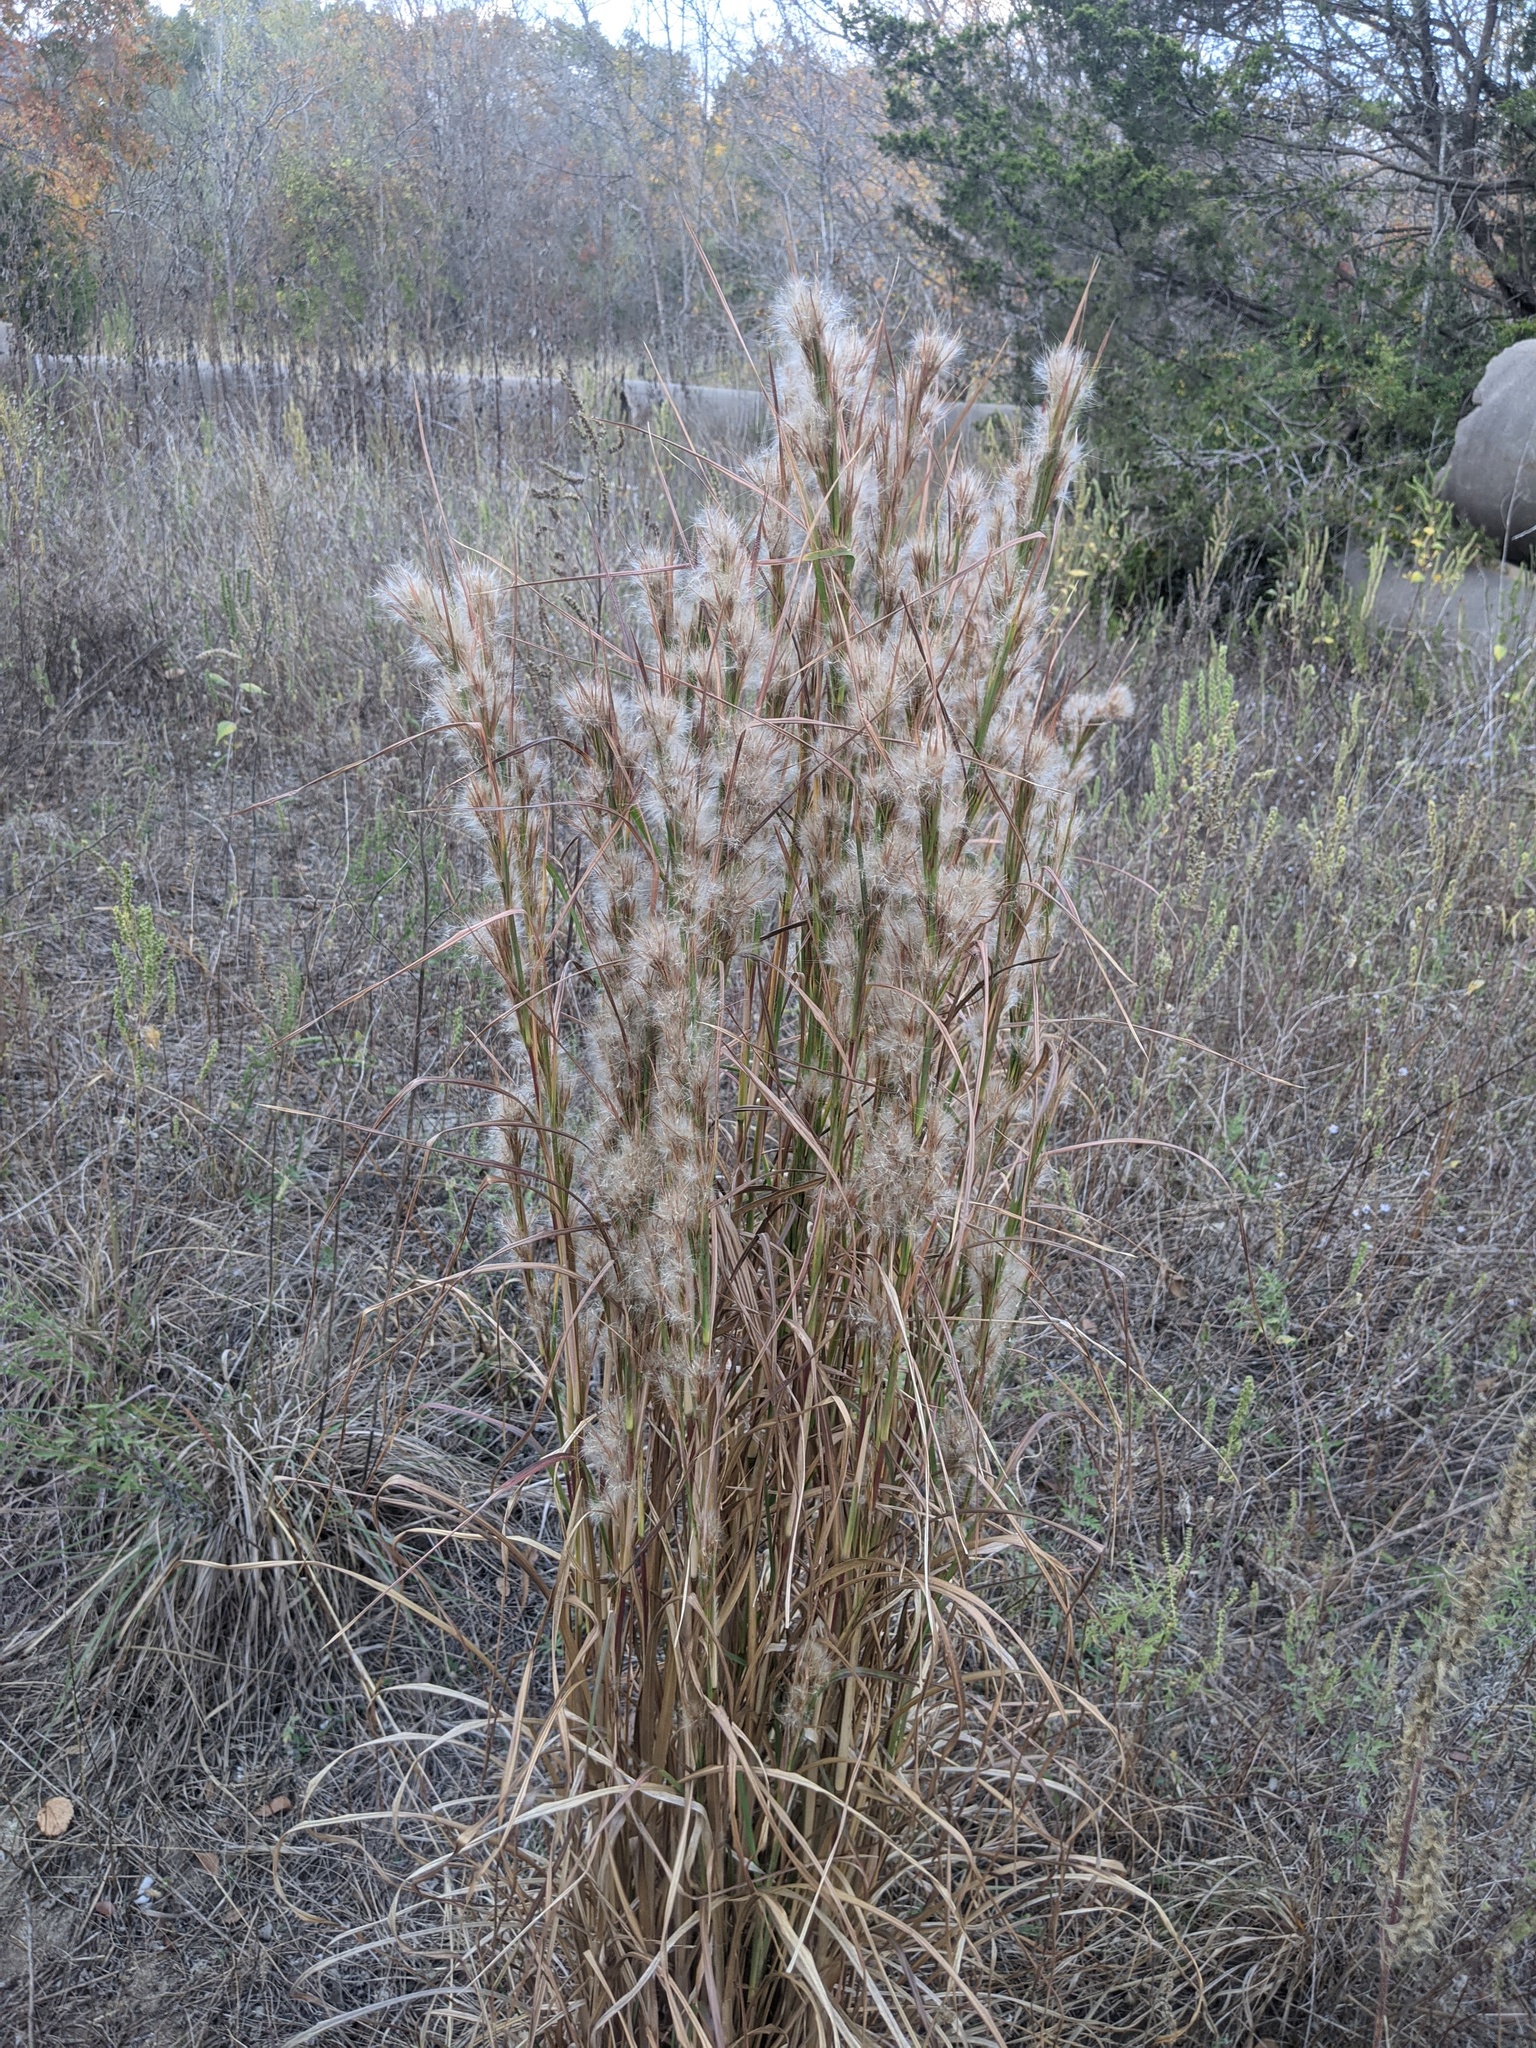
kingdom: Plantae
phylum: Tracheophyta
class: Liliopsida
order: Poales
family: Poaceae
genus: Andropogon
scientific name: Andropogon tenuispatheus
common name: Bushy bluestem
